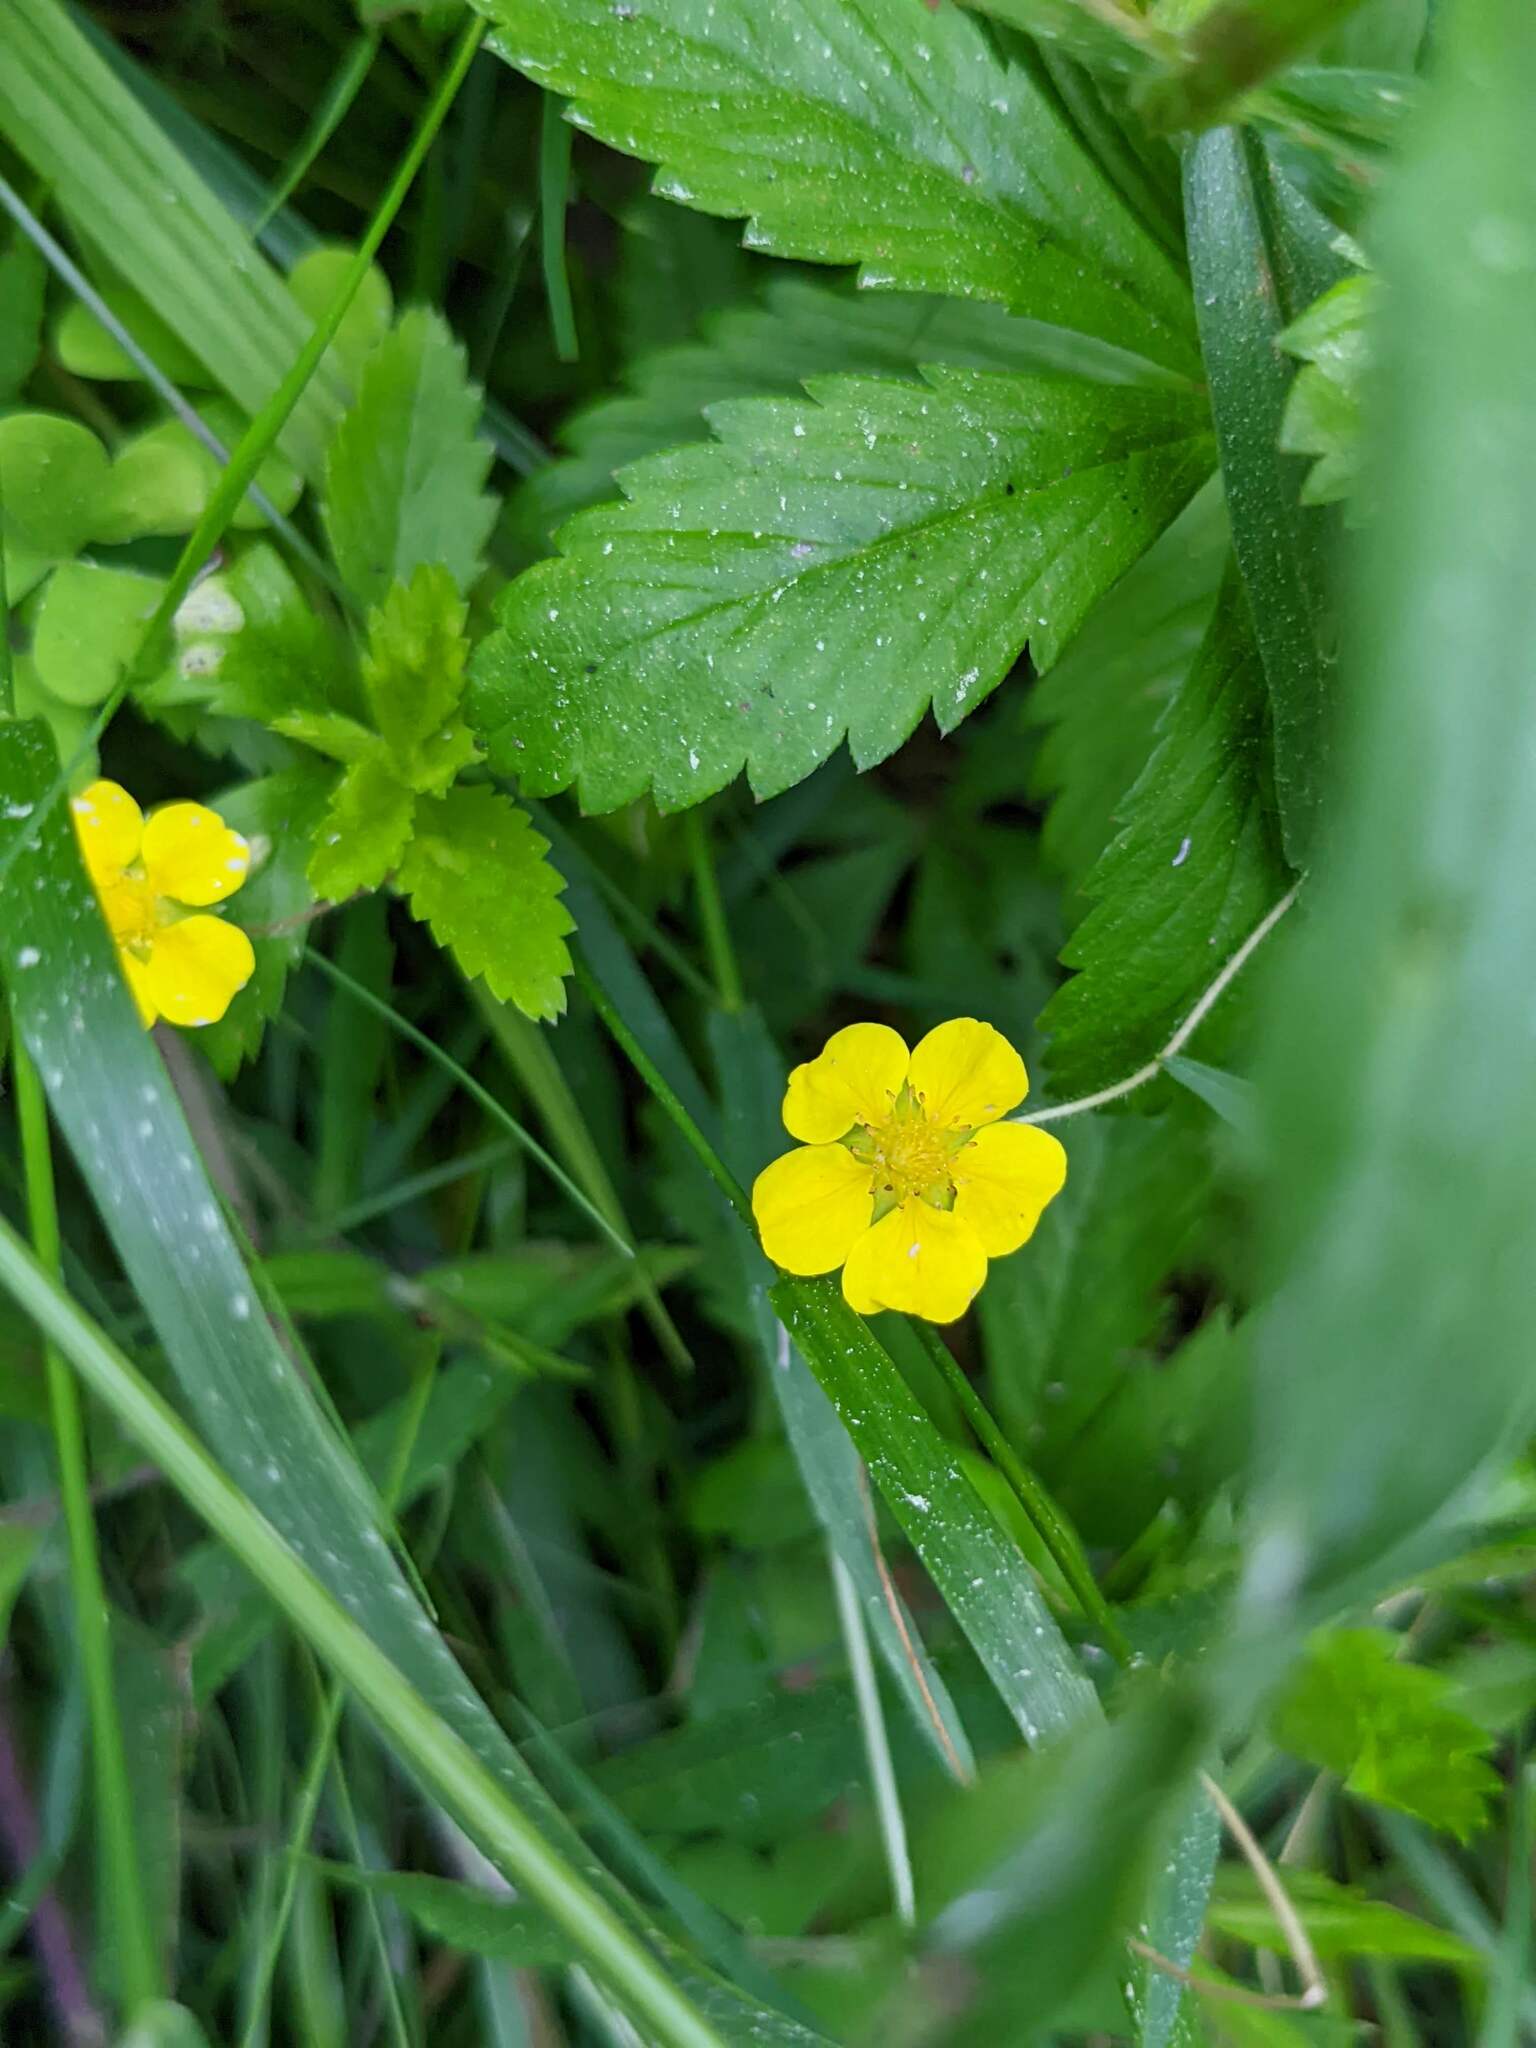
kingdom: Plantae
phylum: Tracheophyta
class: Magnoliopsida
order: Rosales
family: Rosaceae
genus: Potentilla
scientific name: Potentilla simplex
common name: Old field cinquefoil
